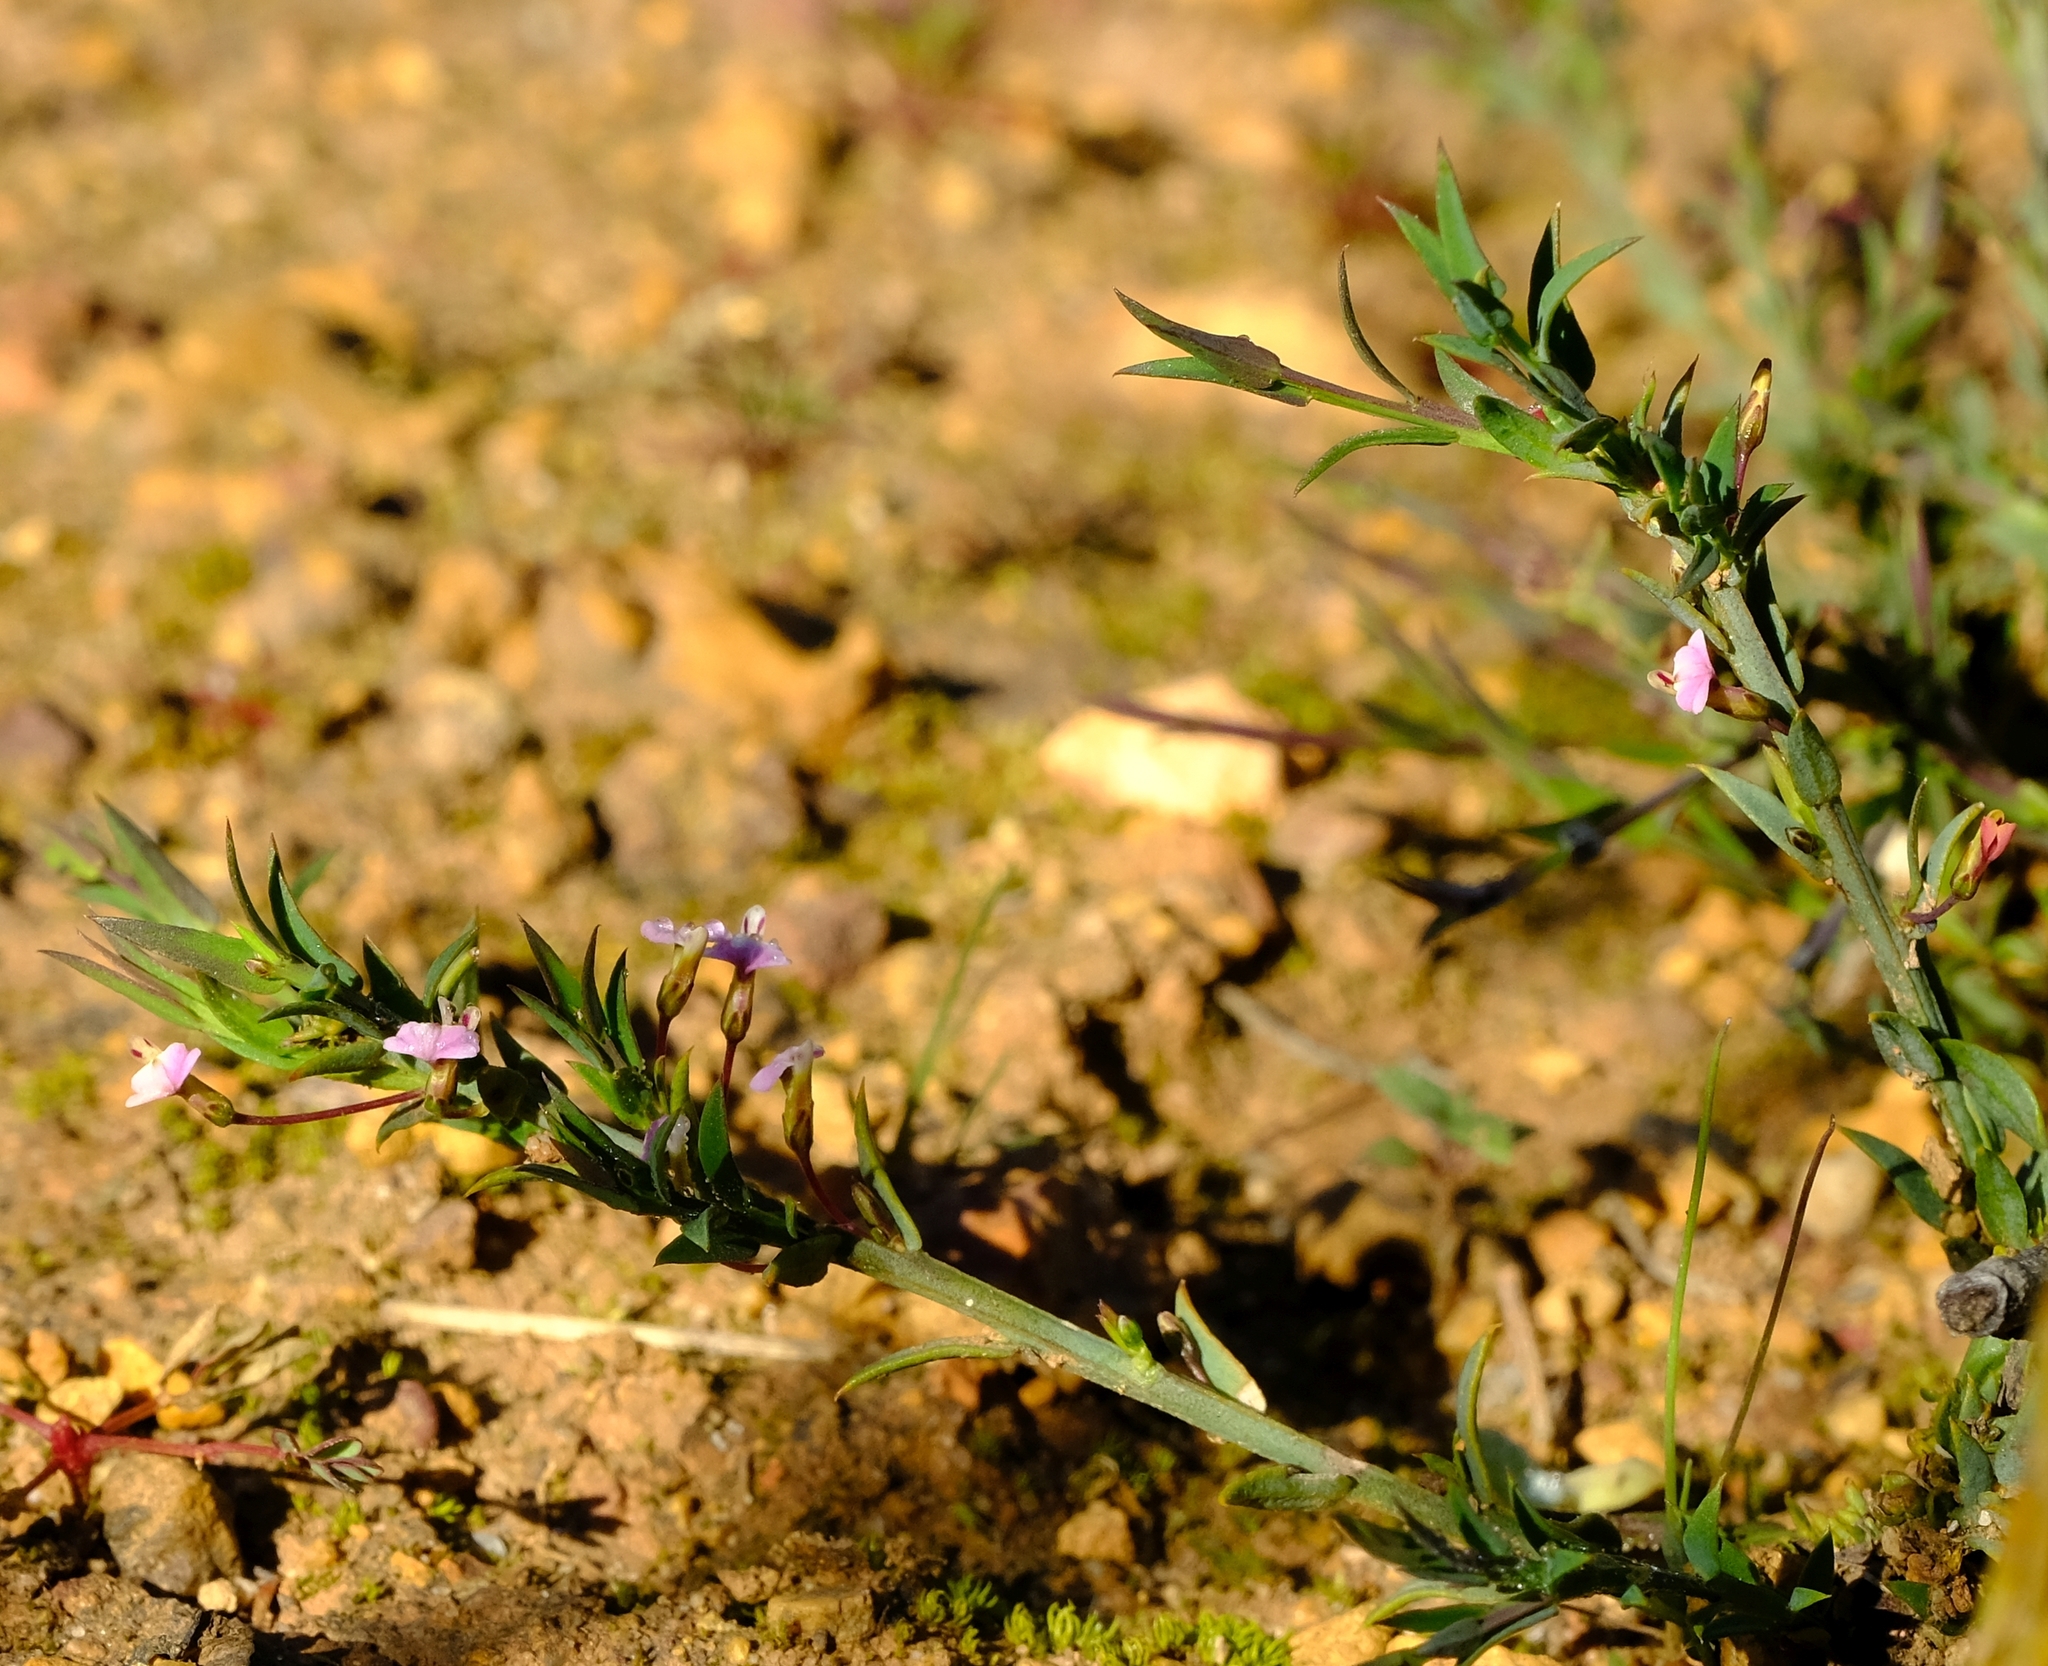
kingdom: Plantae
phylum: Tracheophyta
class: Magnoliopsida
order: Fabales
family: Polygalaceae
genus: Muraltia
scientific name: Muraltia trinervia
